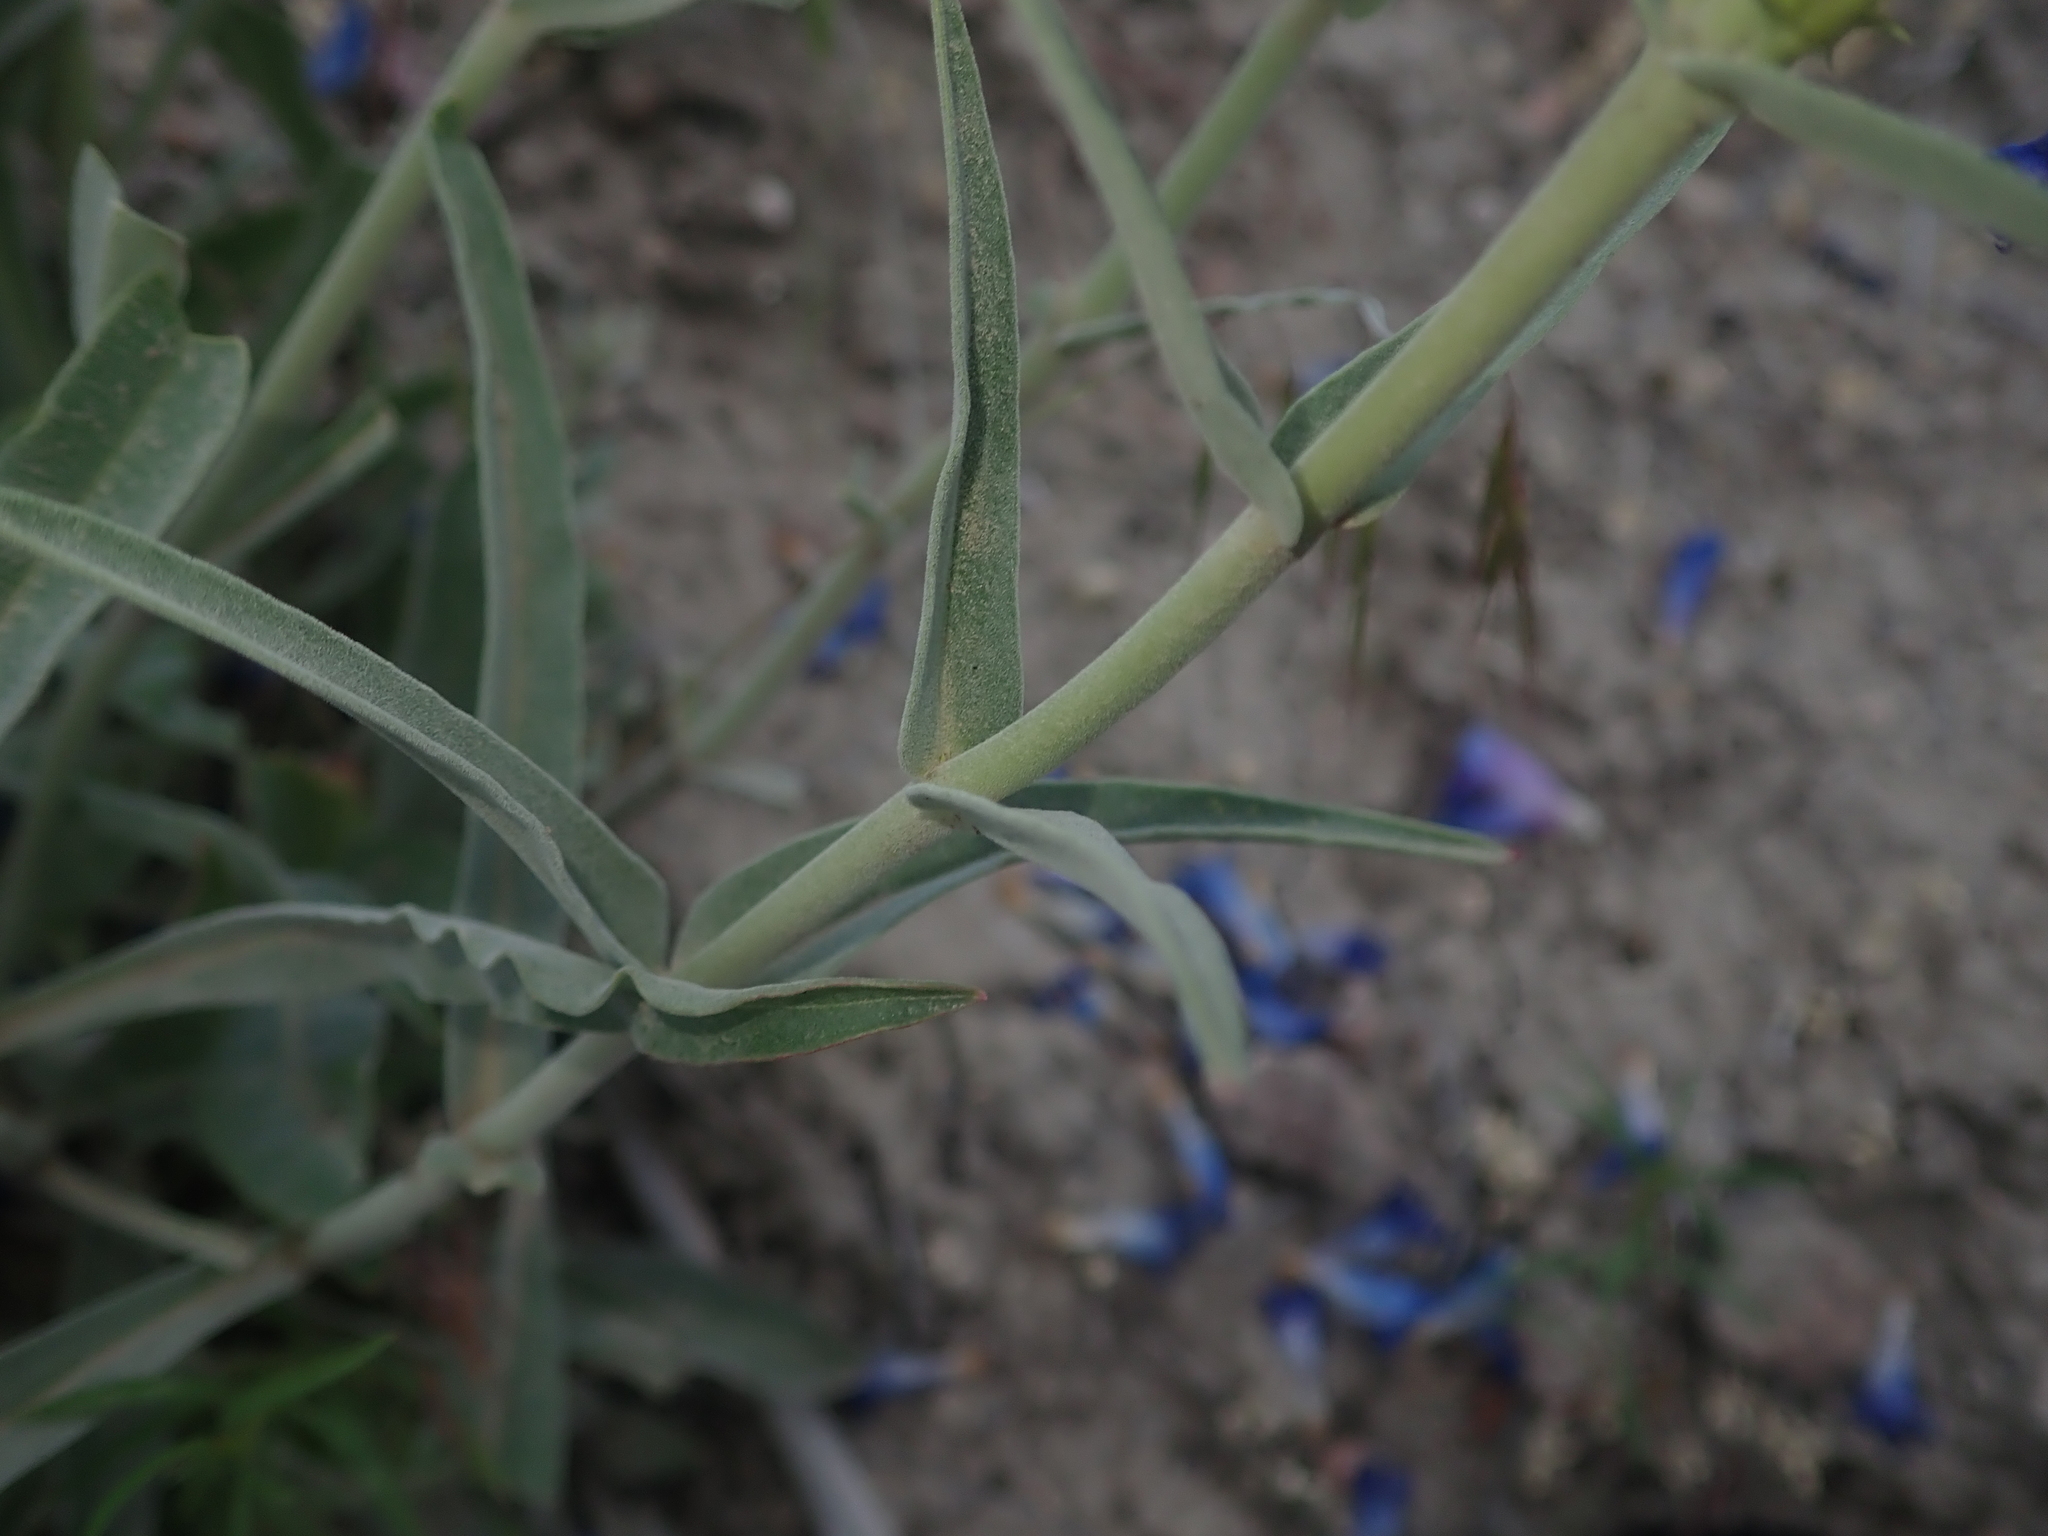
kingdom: Plantae
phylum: Tracheophyta
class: Magnoliopsida
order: Lamiales
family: Plantaginaceae
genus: Penstemon
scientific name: Penstemon speciosus
